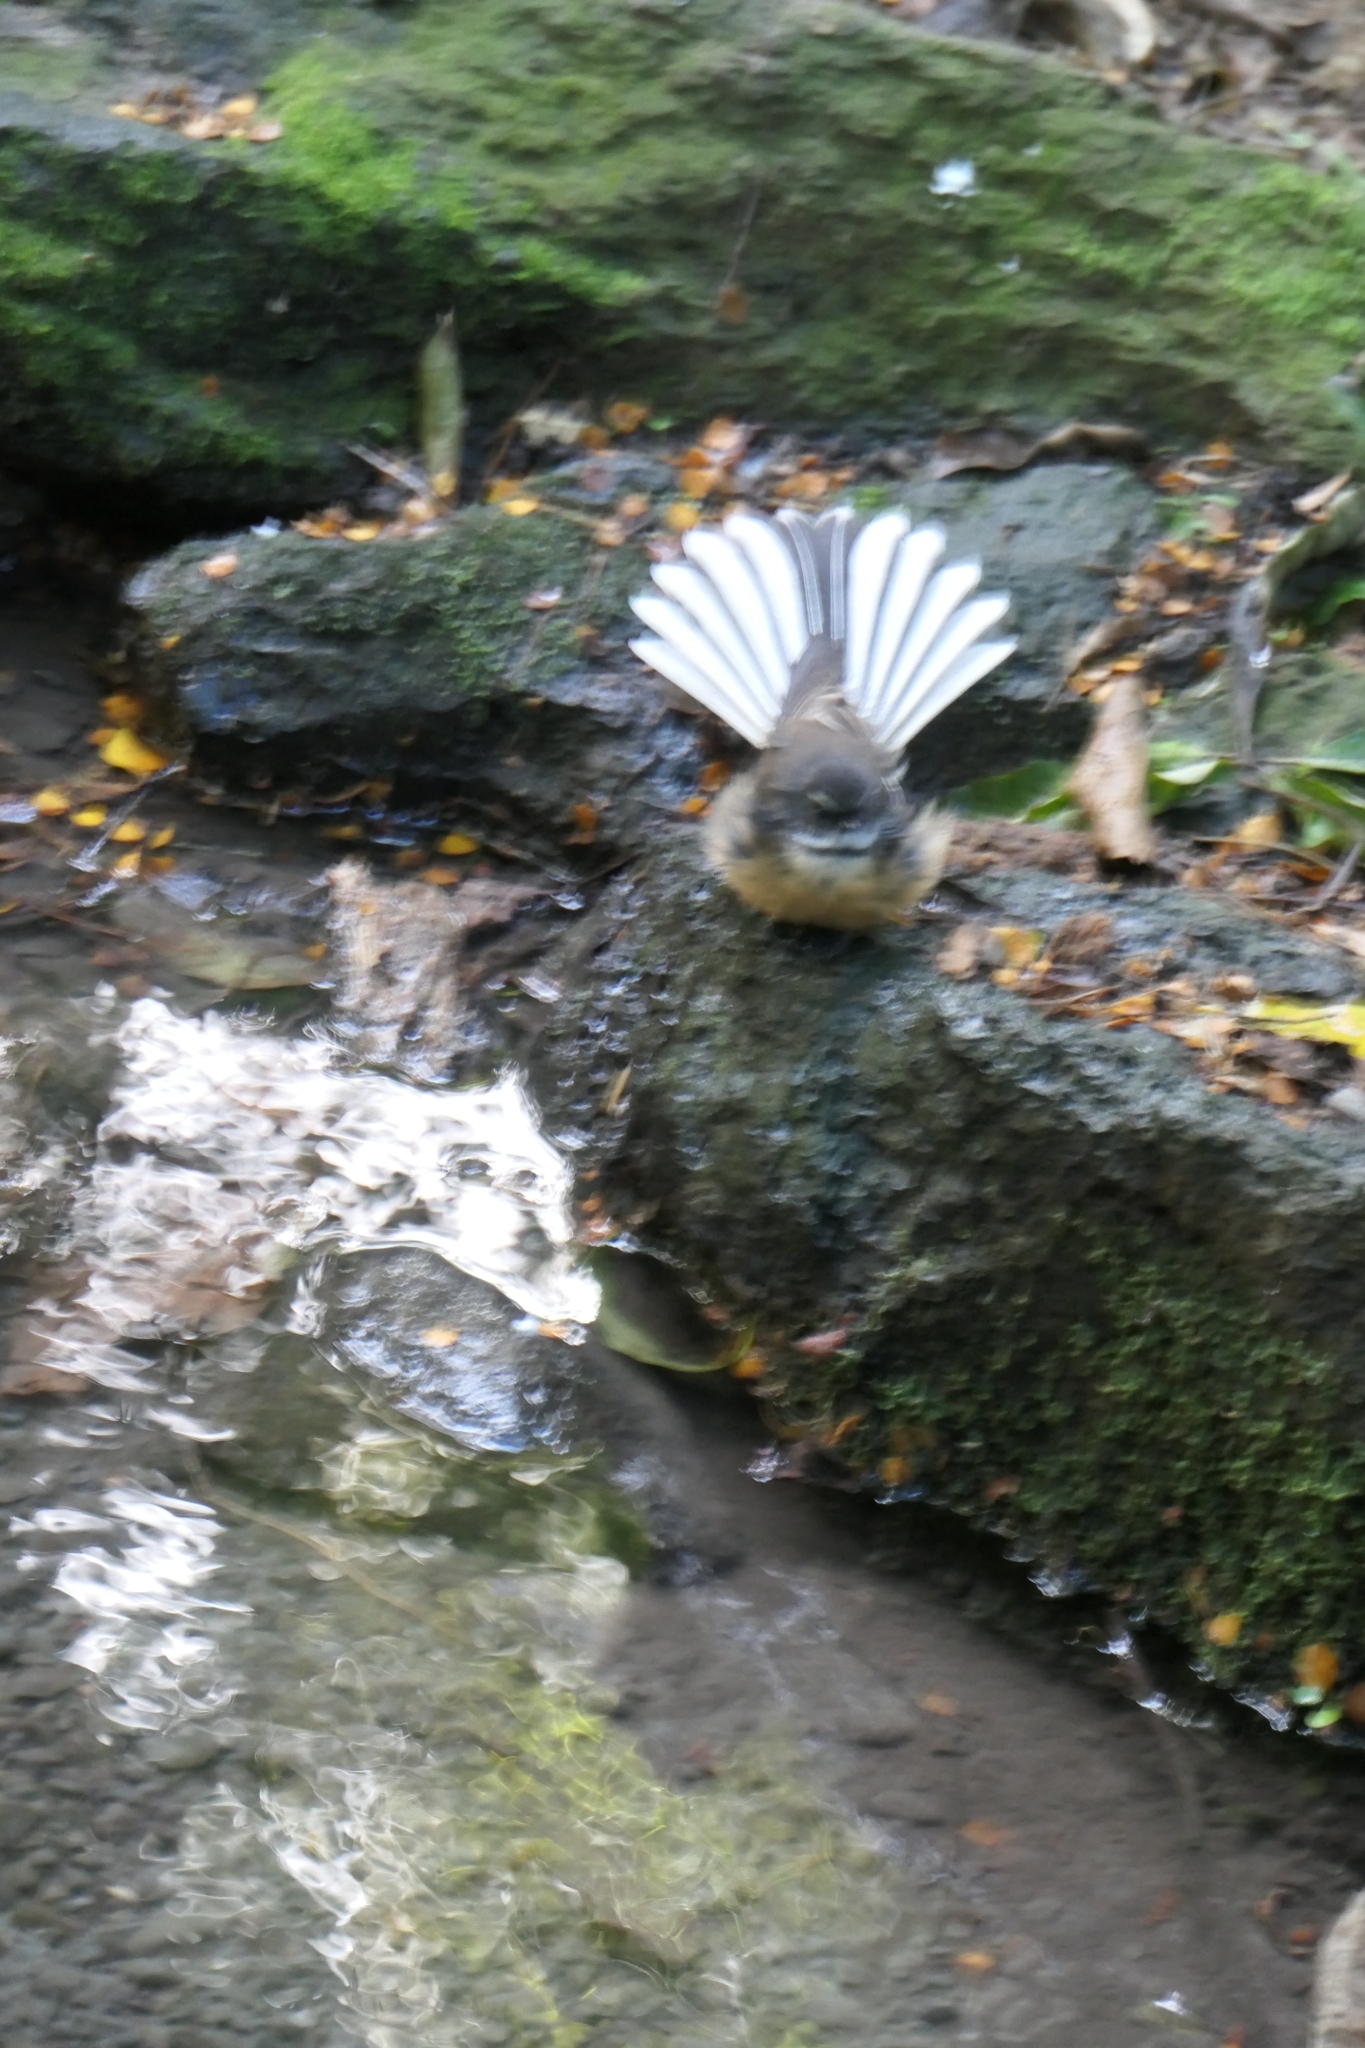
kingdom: Animalia
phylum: Chordata
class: Aves
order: Passeriformes
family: Rhipiduridae
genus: Rhipidura
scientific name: Rhipidura fuliginosa
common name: New zealand fantail
